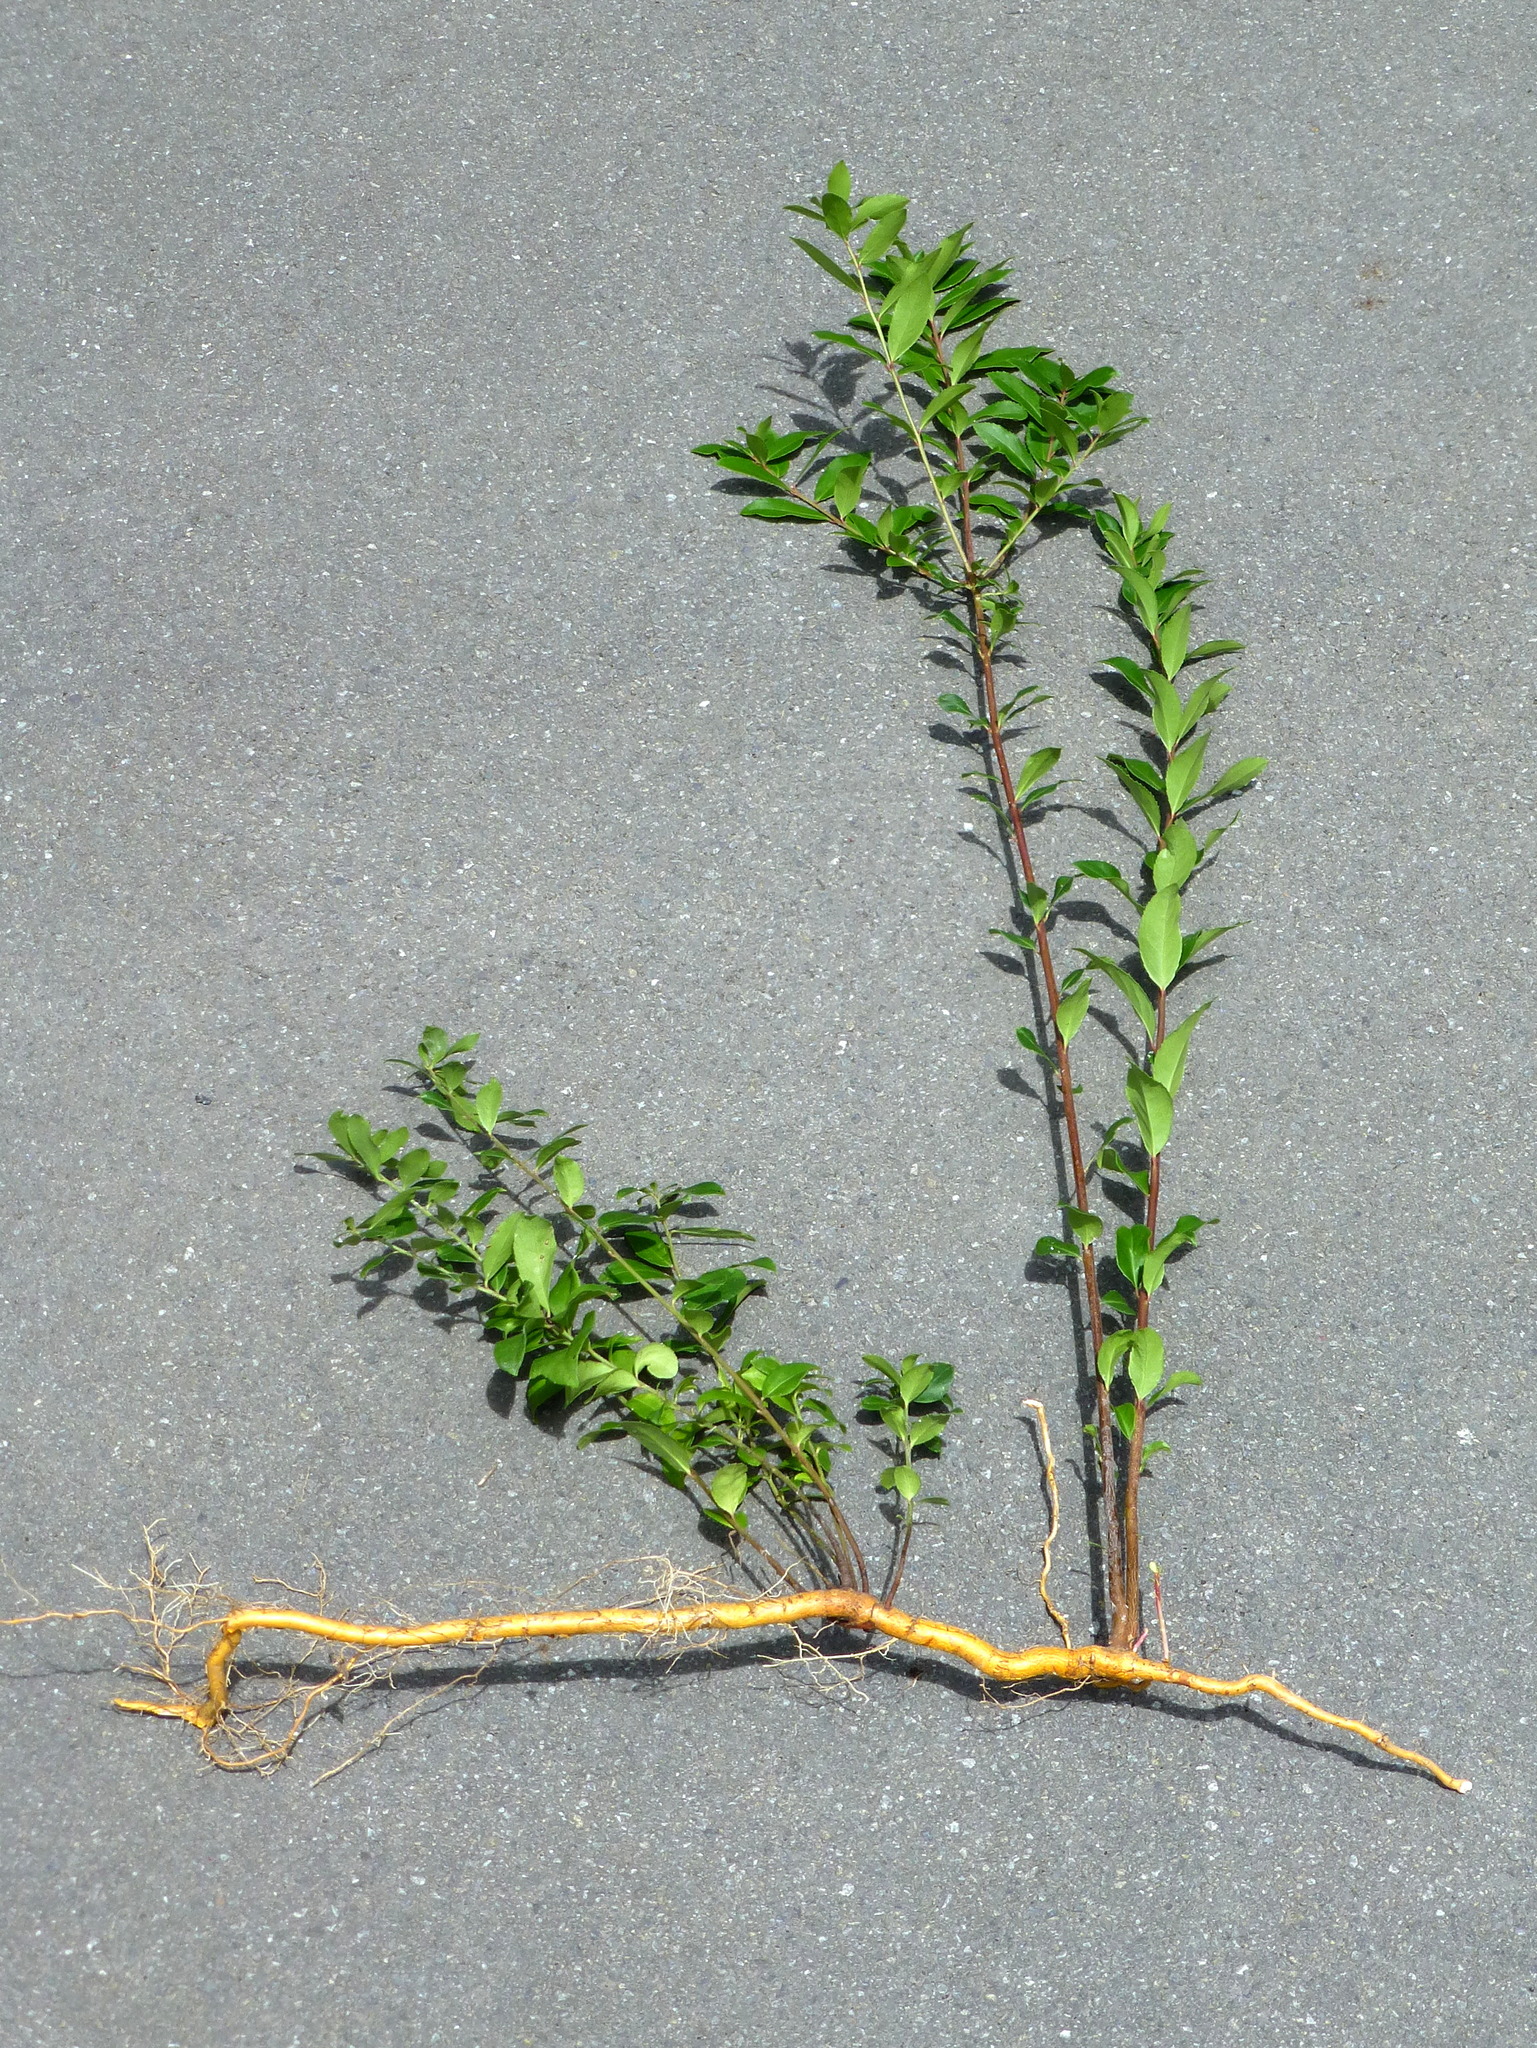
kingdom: Plantae
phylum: Tracheophyta
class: Magnoliopsida
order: Celastrales
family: Celastraceae
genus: Maytenus
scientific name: Maytenus boaria
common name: Mayten
